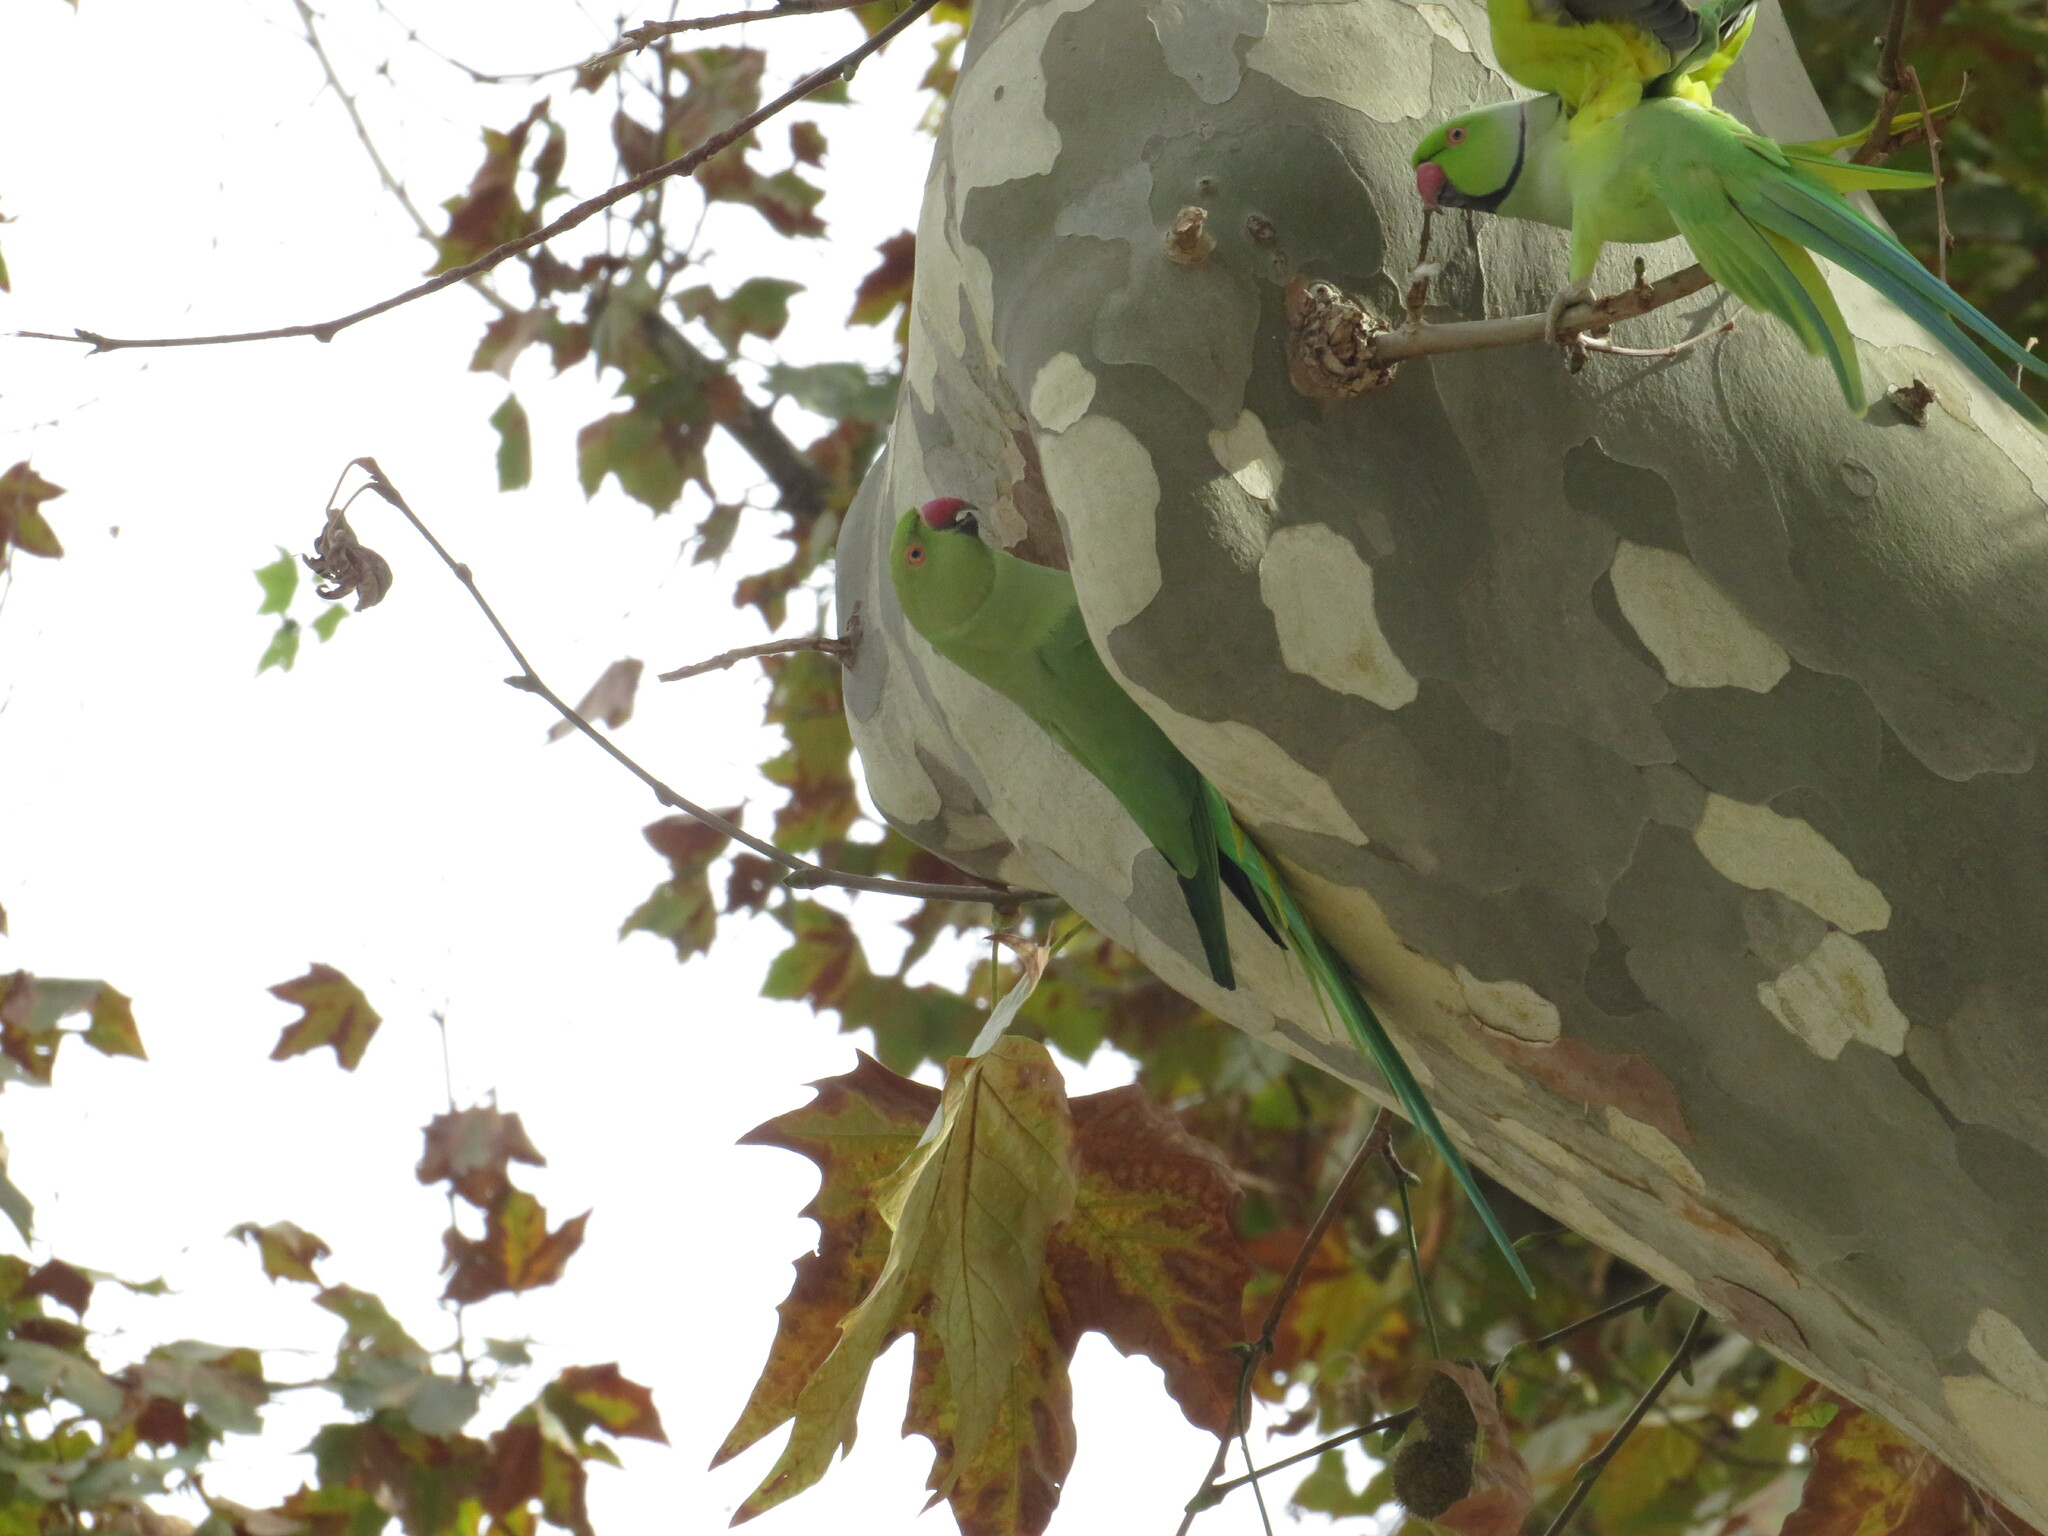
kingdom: Animalia
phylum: Chordata
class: Aves
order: Psittaciformes
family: Psittacidae
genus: Psittacula
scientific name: Psittacula krameri
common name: Rose-ringed parakeet
